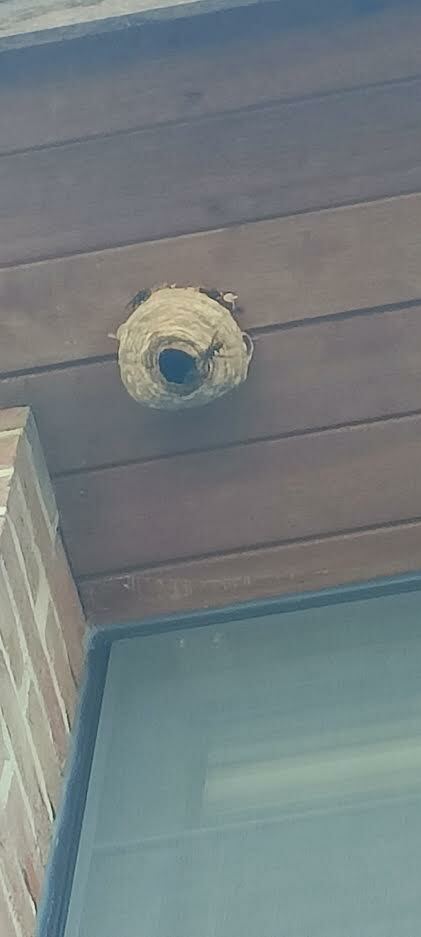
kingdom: Animalia
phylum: Arthropoda
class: Insecta
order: Hymenoptera
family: Vespidae
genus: Vespa
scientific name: Vespa velutina
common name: Asian hornet
